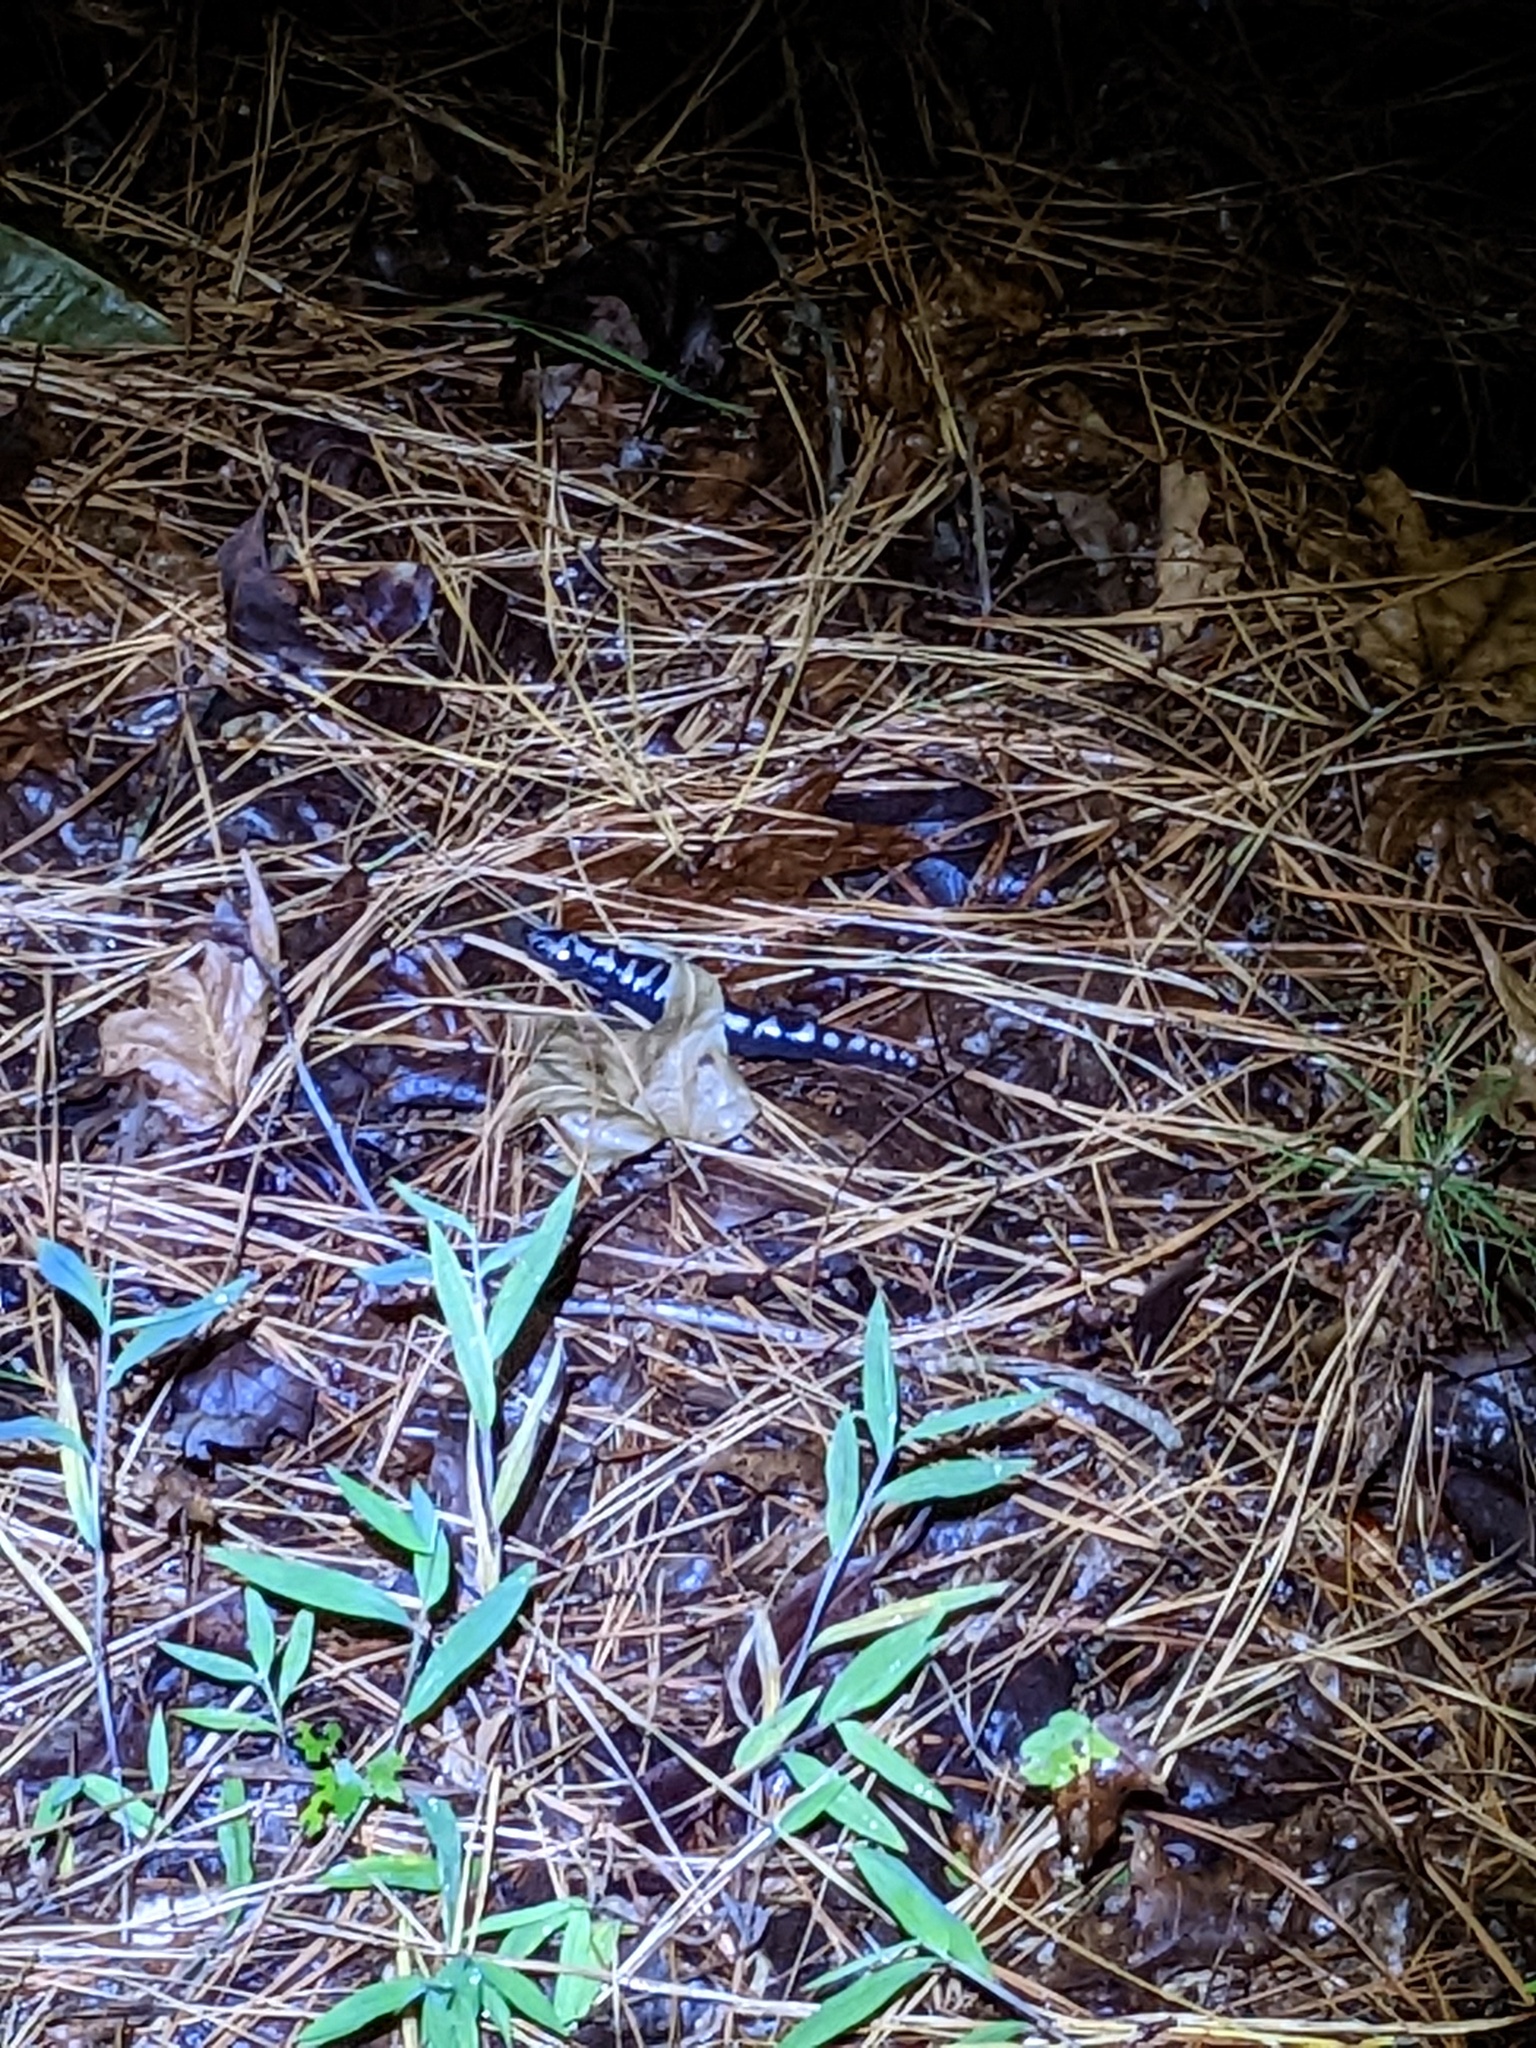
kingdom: Animalia
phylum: Chordata
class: Amphibia
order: Caudata
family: Ambystomatidae
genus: Ambystoma
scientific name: Ambystoma opacum
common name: Marbled salamander
